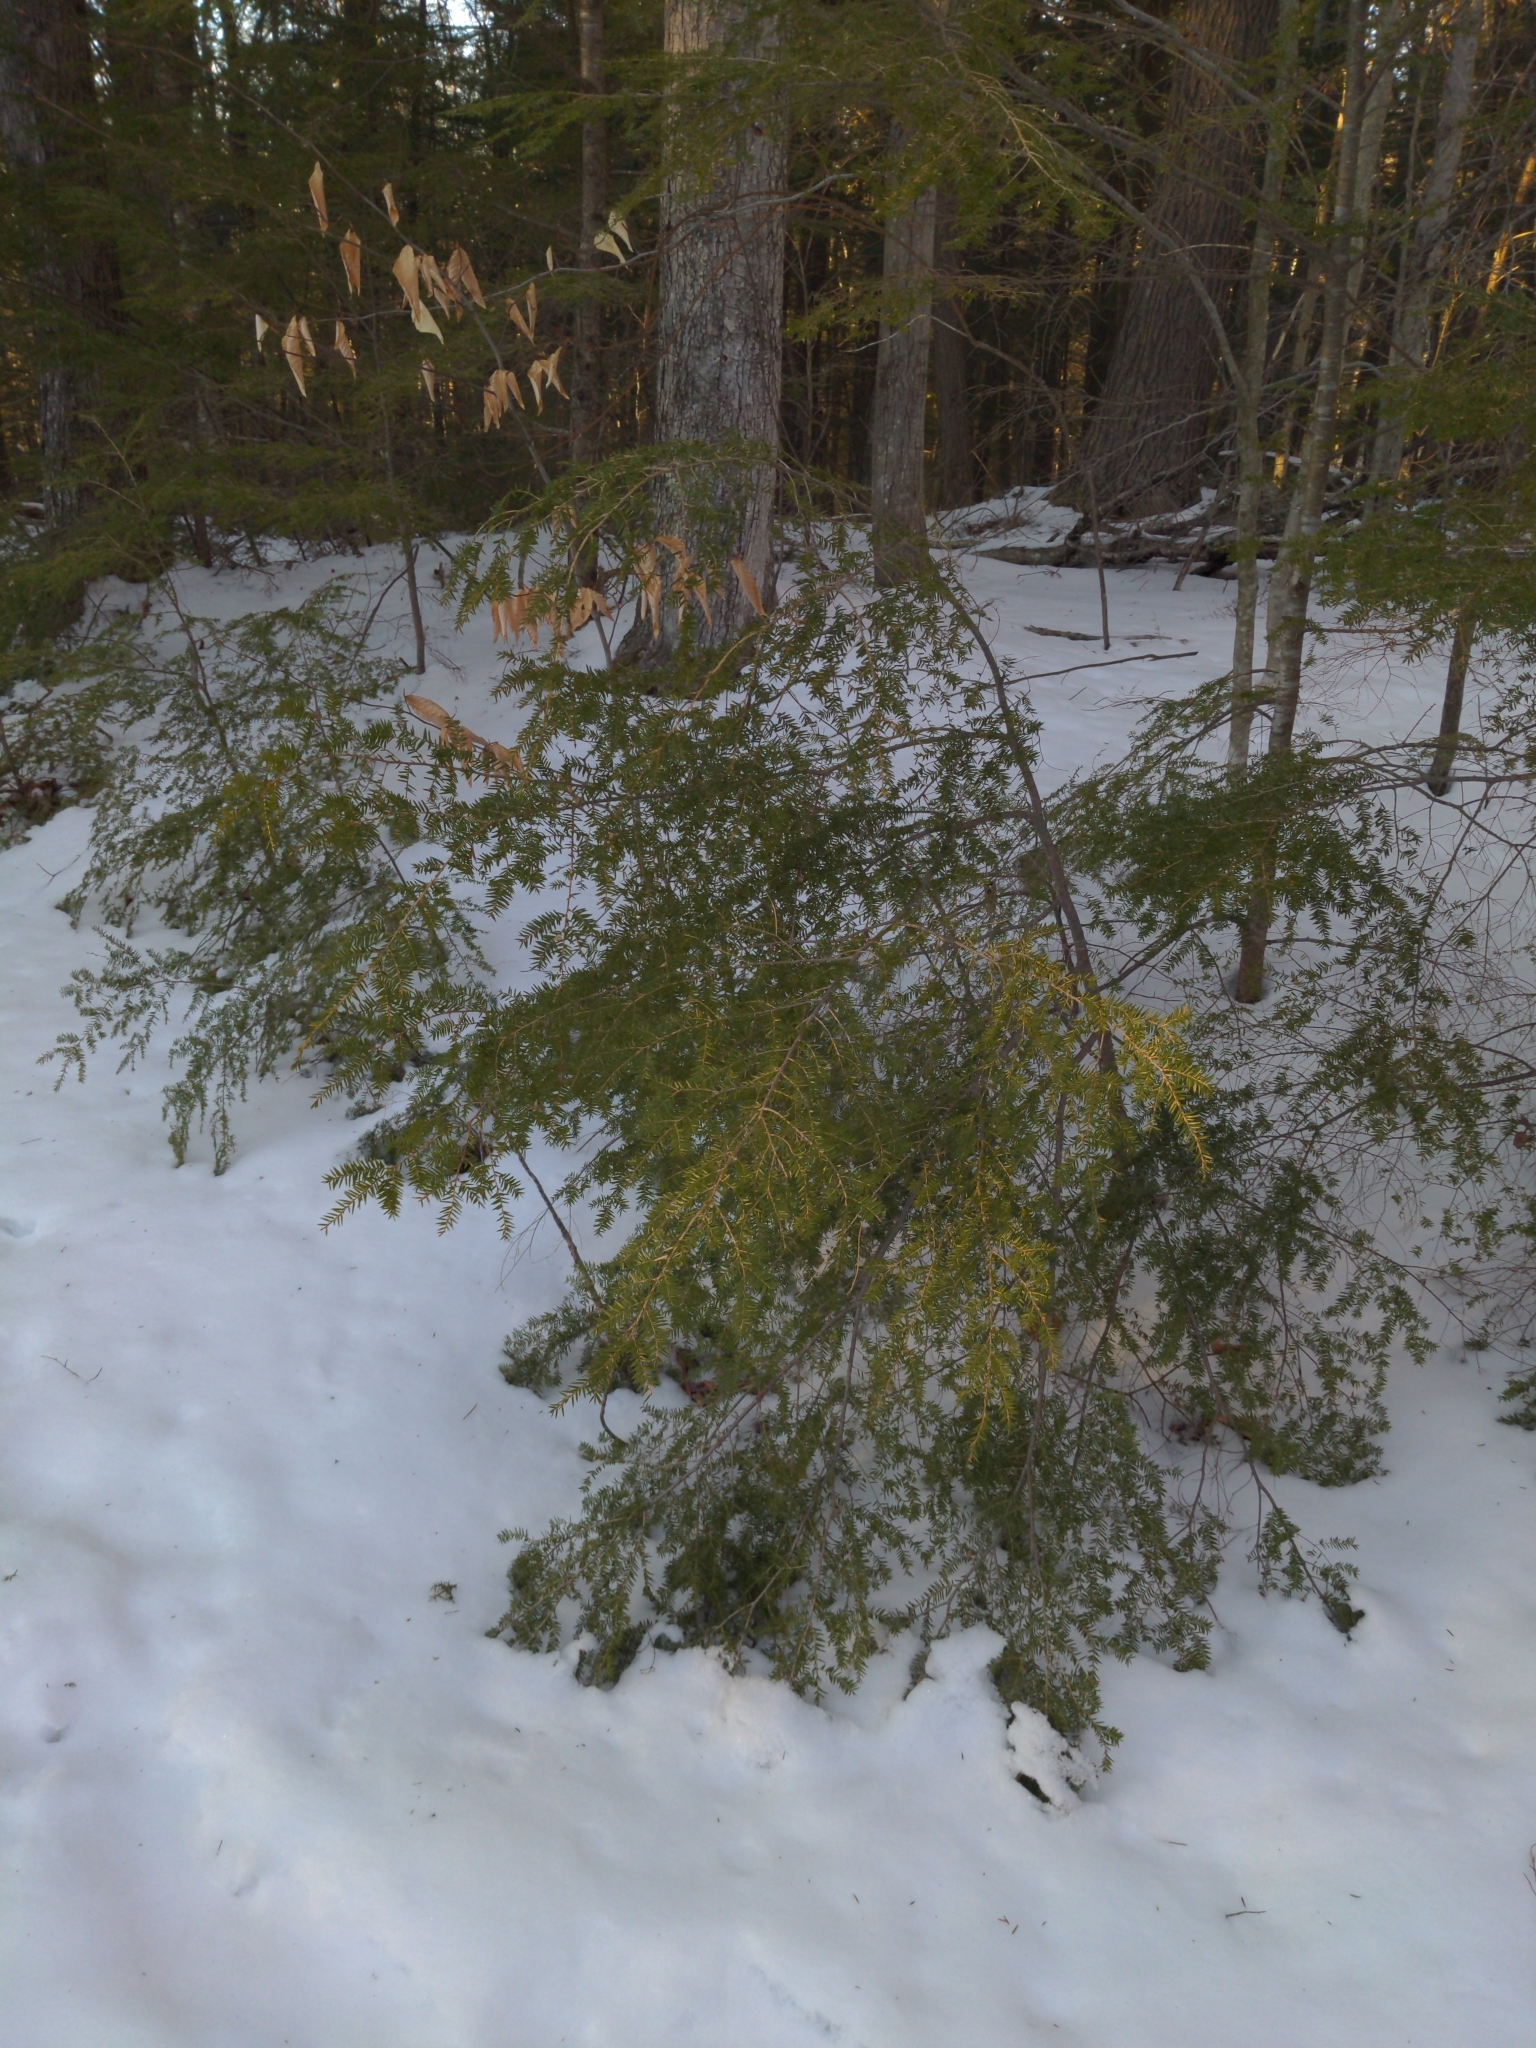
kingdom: Plantae
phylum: Tracheophyta
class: Pinopsida
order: Pinales
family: Pinaceae
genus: Tsuga
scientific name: Tsuga canadensis
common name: Eastern hemlock
